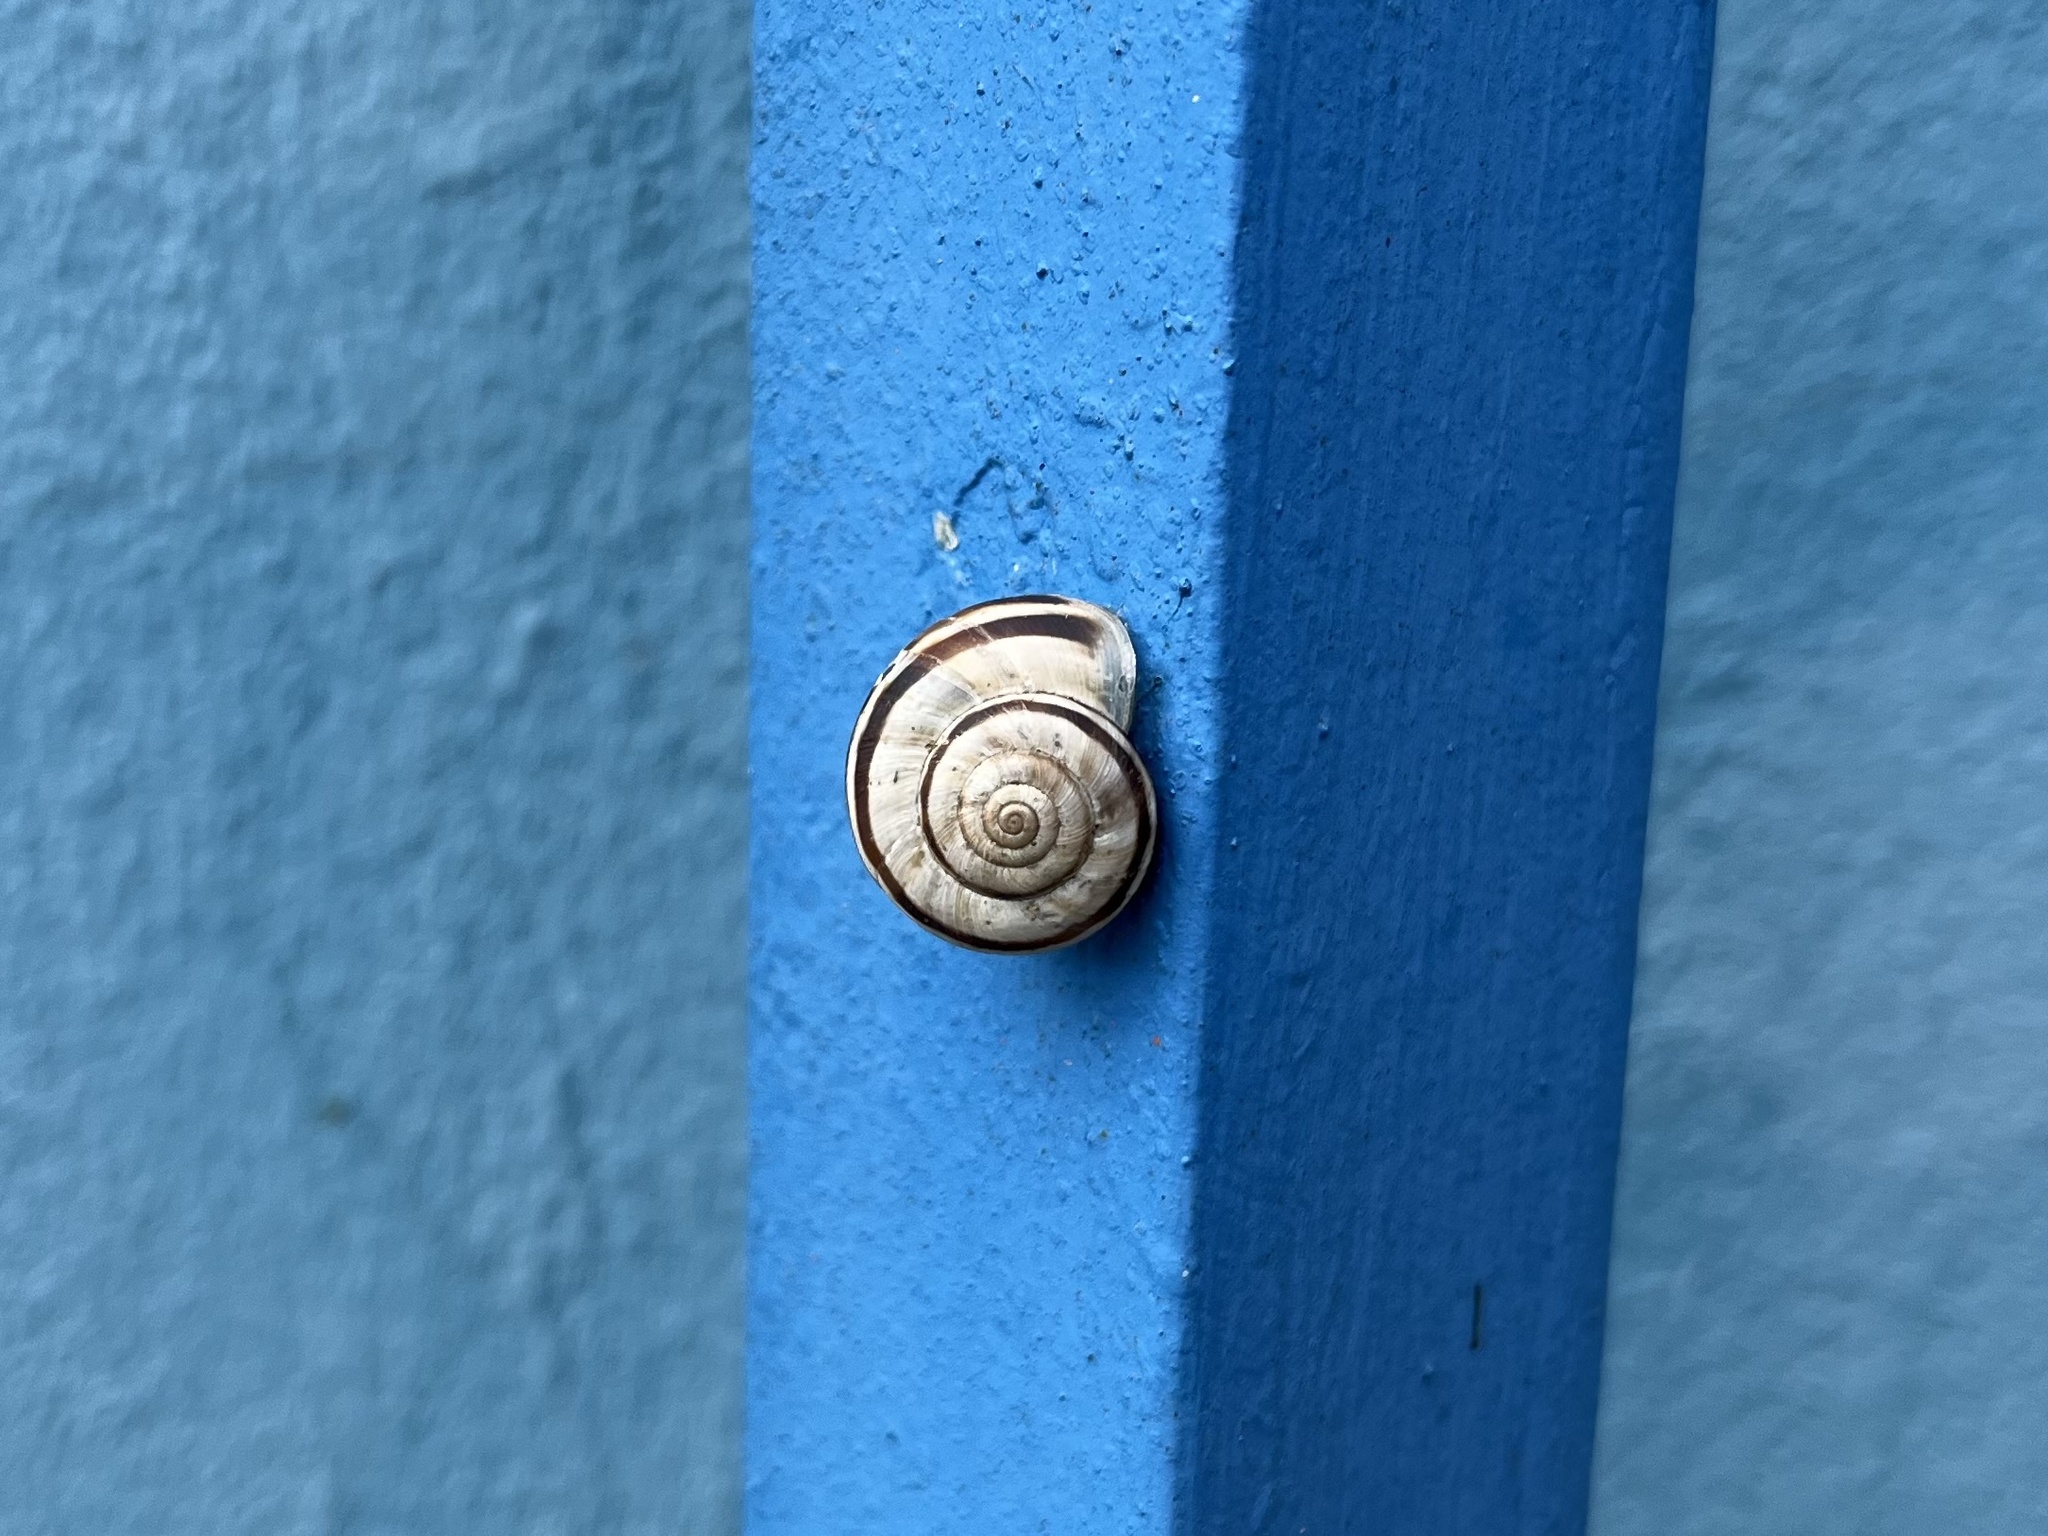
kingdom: Animalia
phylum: Mollusca
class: Gastropoda
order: Stylommatophora
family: Geomitridae
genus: Xerolenta
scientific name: Xerolenta obvia
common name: White heath snail
